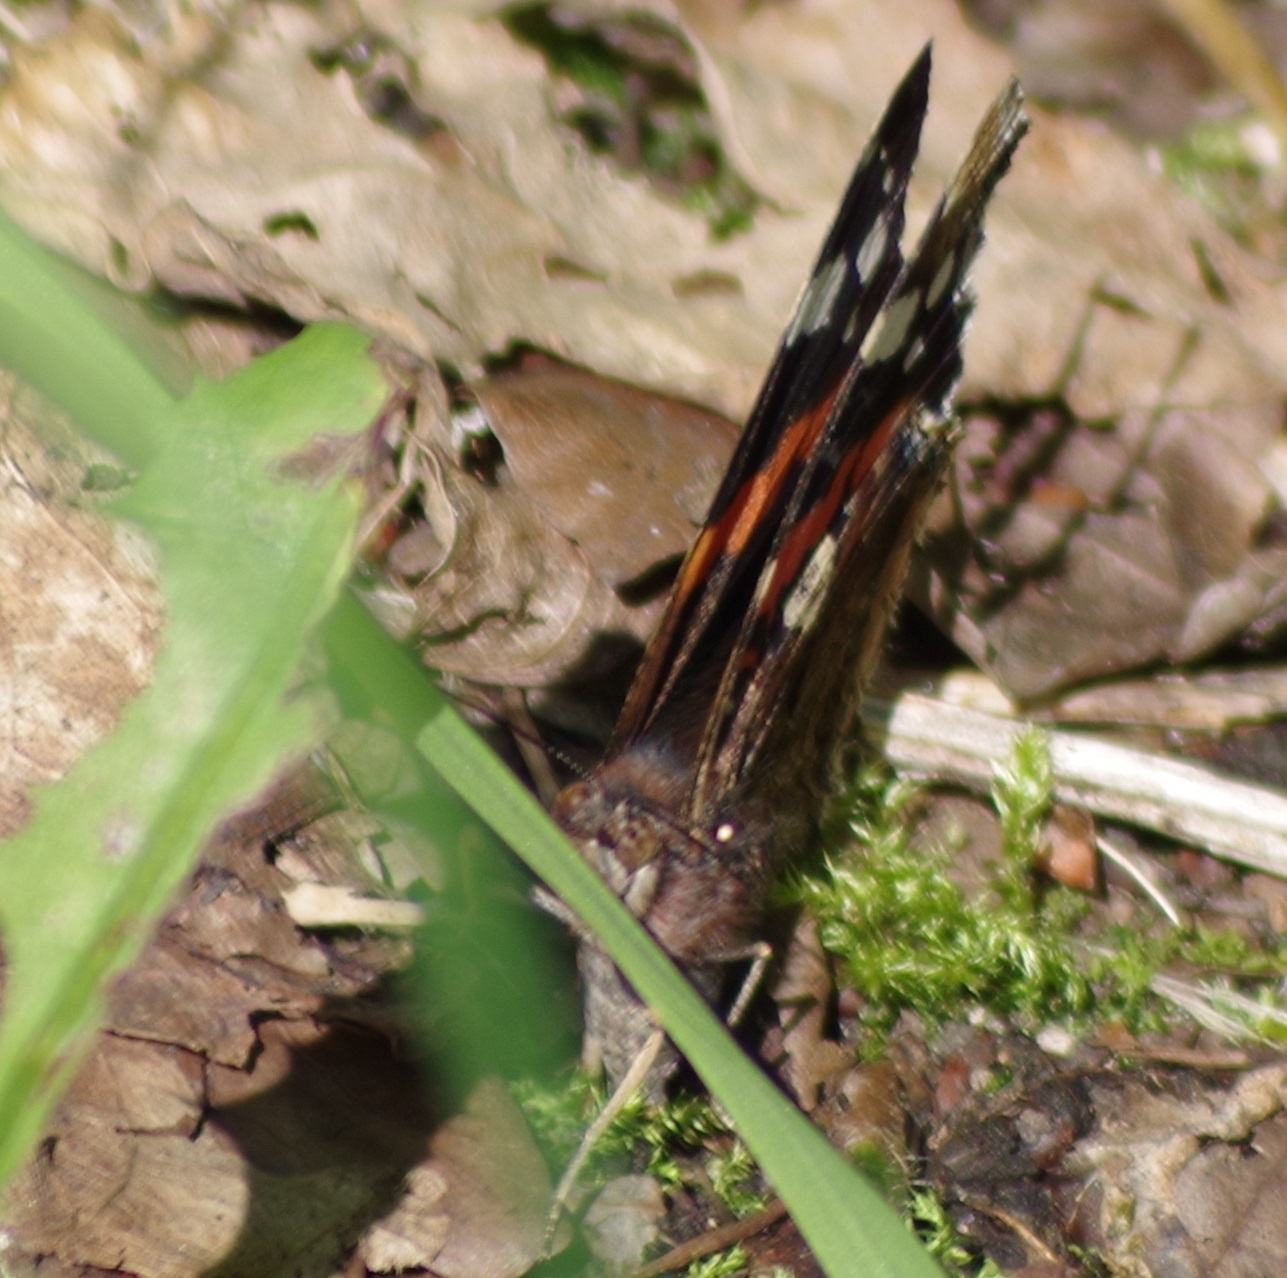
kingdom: Animalia
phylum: Arthropoda
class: Insecta
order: Lepidoptera
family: Nymphalidae
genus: Vanessa
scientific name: Vanessa atalanta
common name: Red admiral
